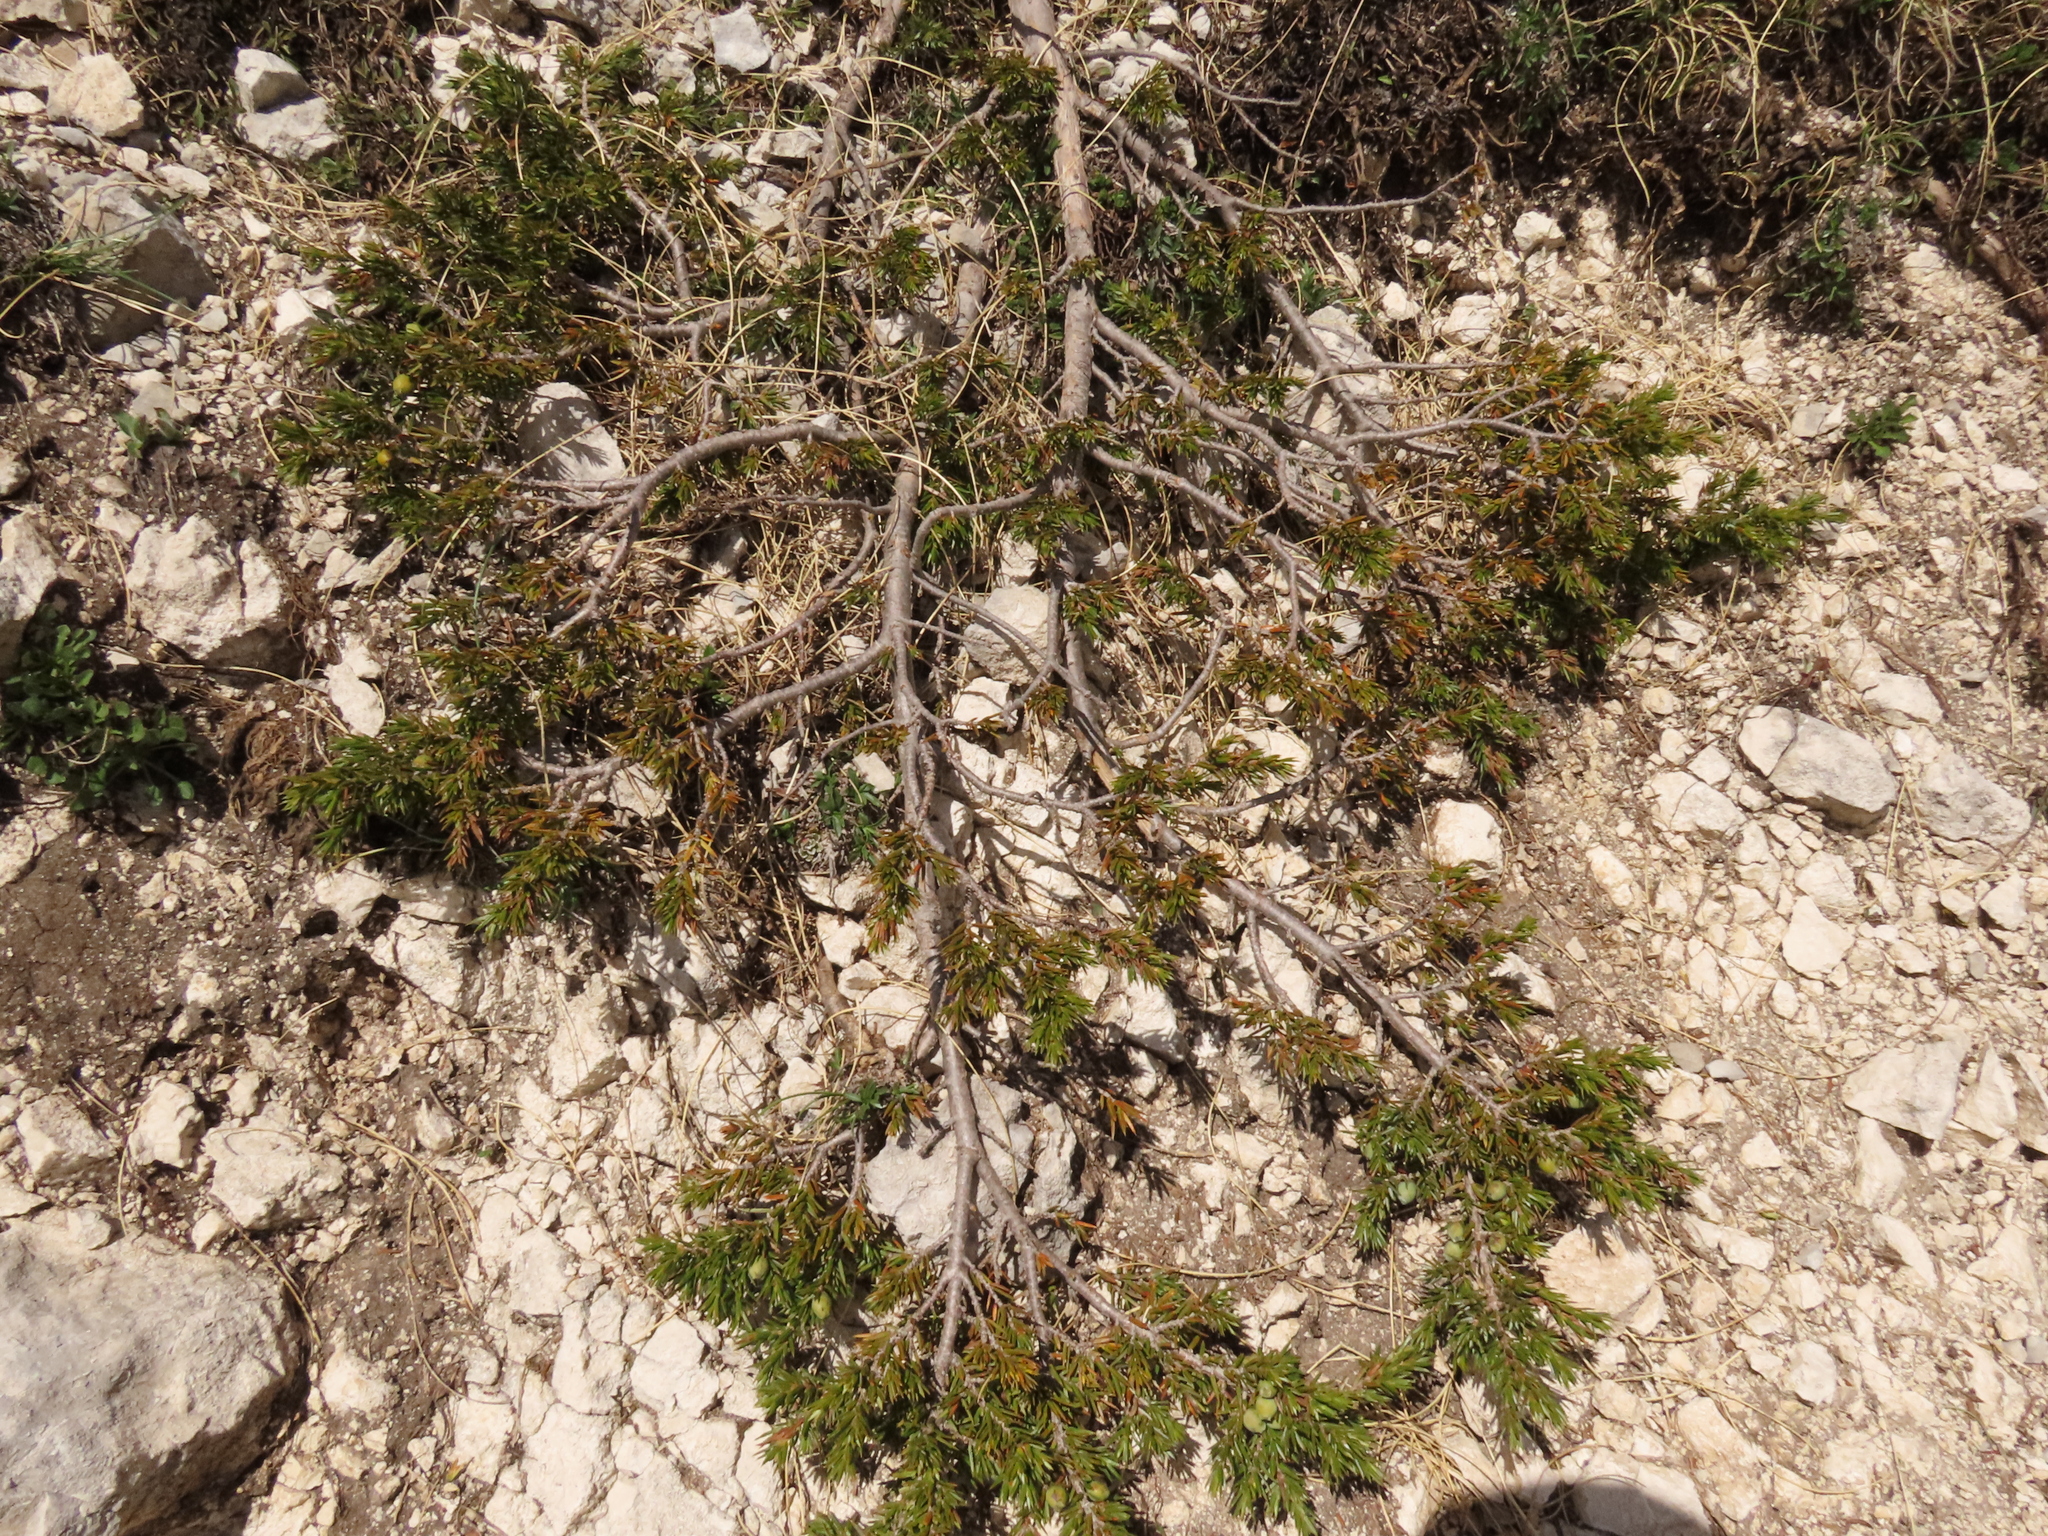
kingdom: Plantae
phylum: Tracheophyta
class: Pinopsida
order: Pinales
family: Cupressaceae
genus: Juniperus
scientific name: Juniperus communis
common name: Common juniper
